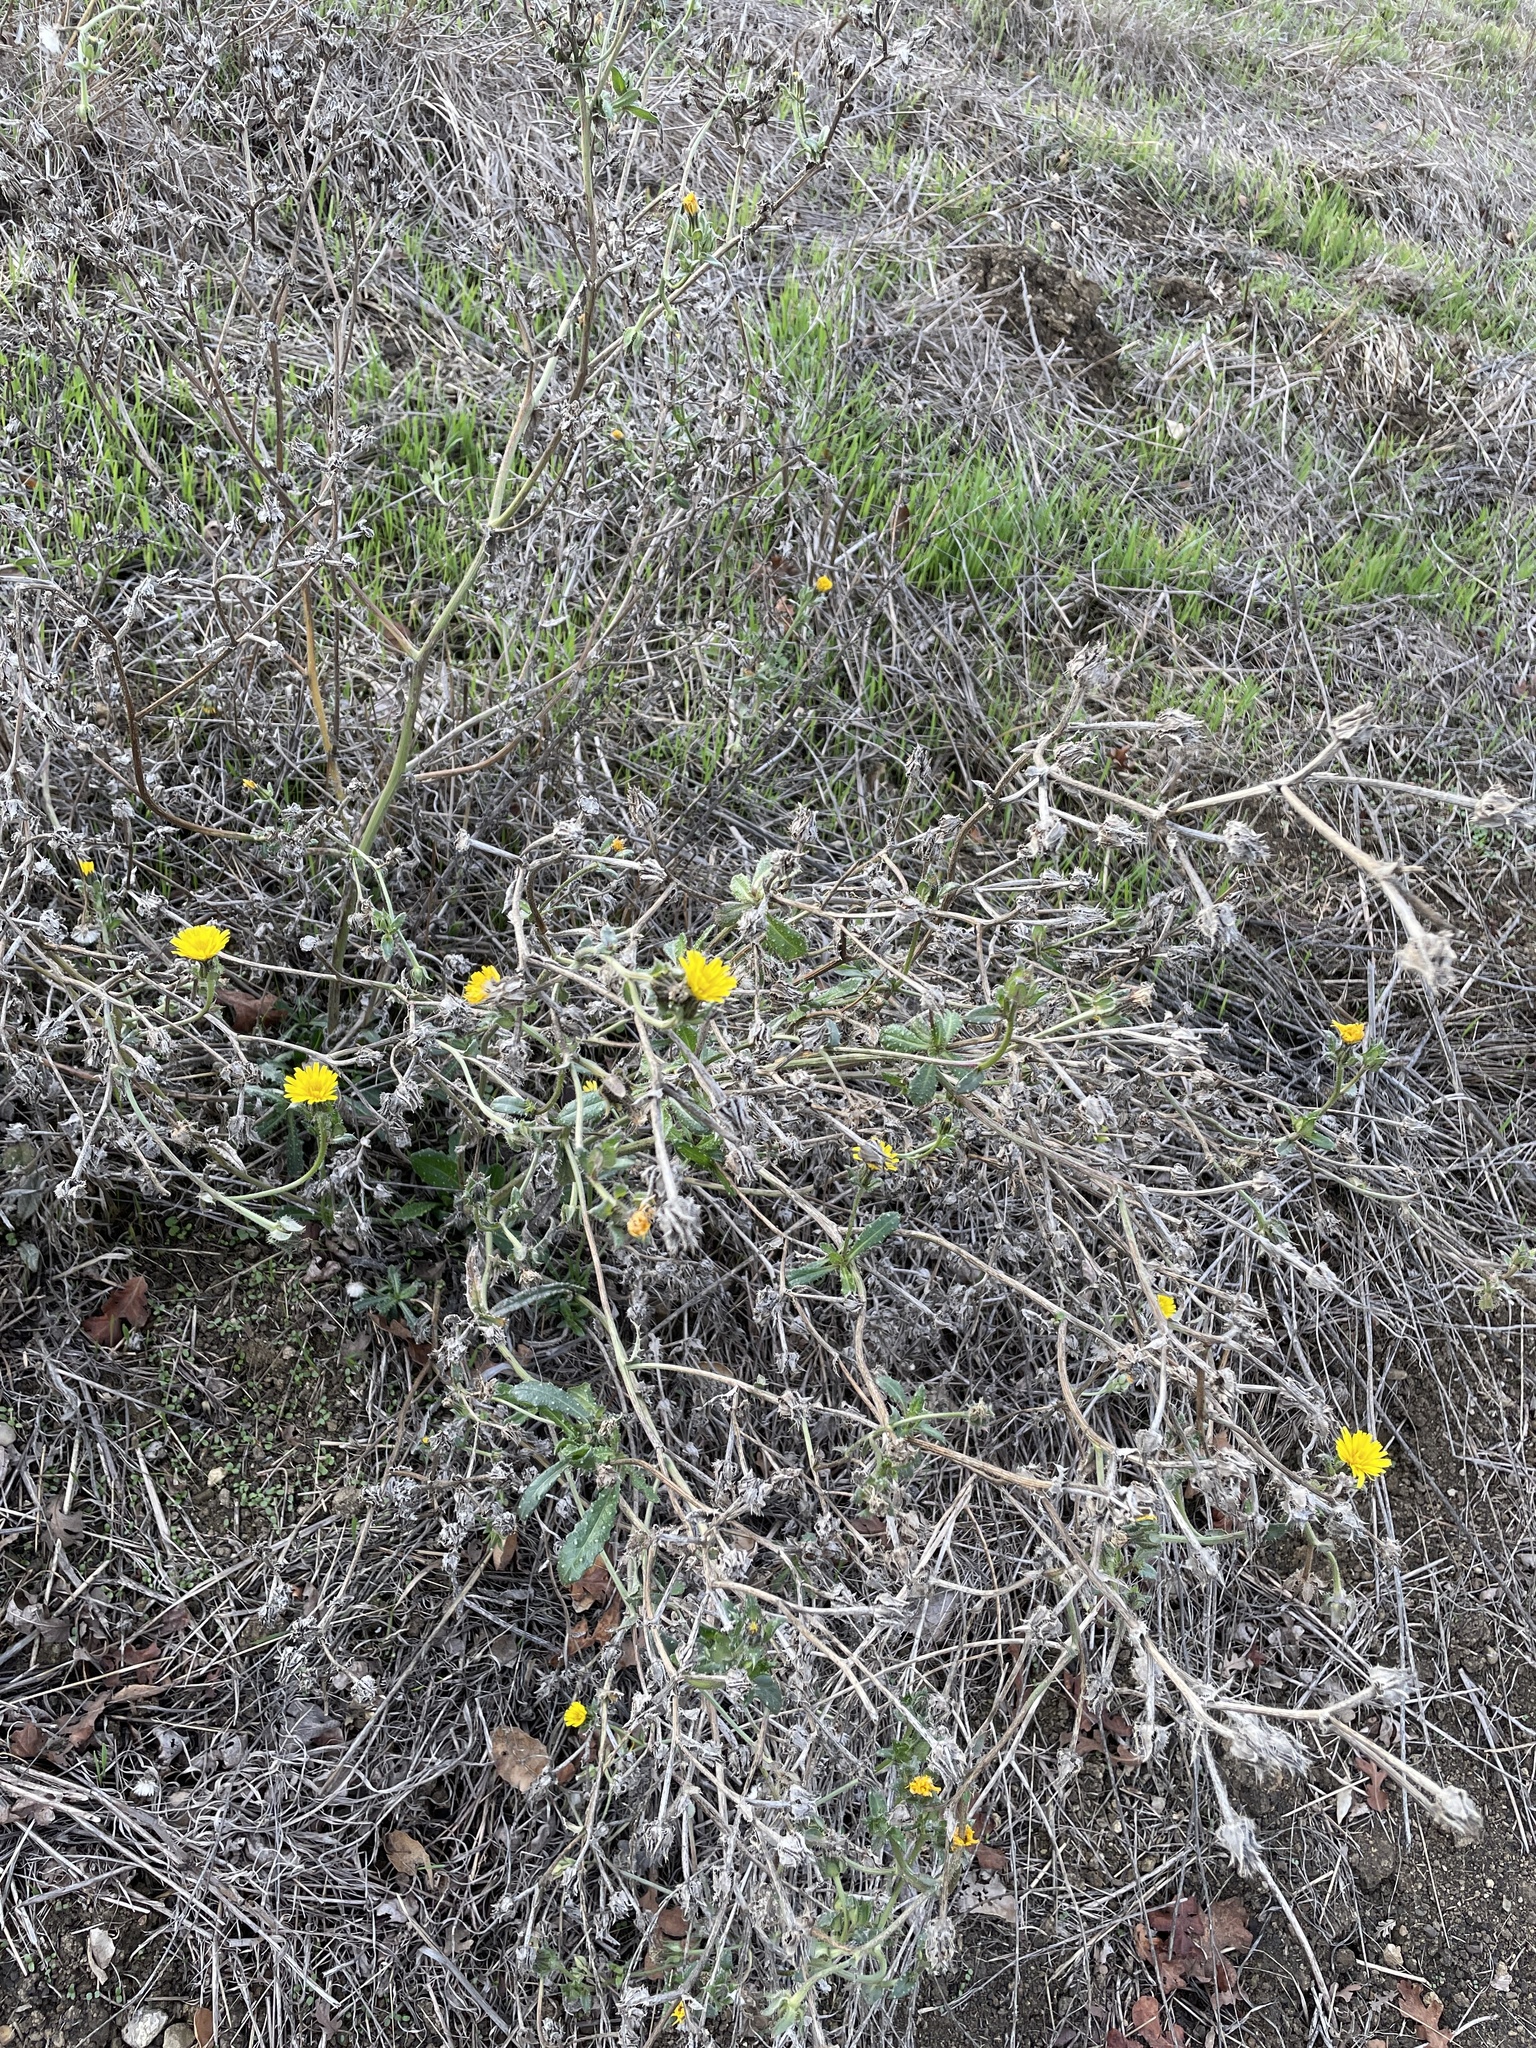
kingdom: Plantae
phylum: Tracheophyta
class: Magnoliopsida
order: Asterales
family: Asteraceae
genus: Helminthotheca
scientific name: Helminthotheca echioides
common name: Ox-tongue
